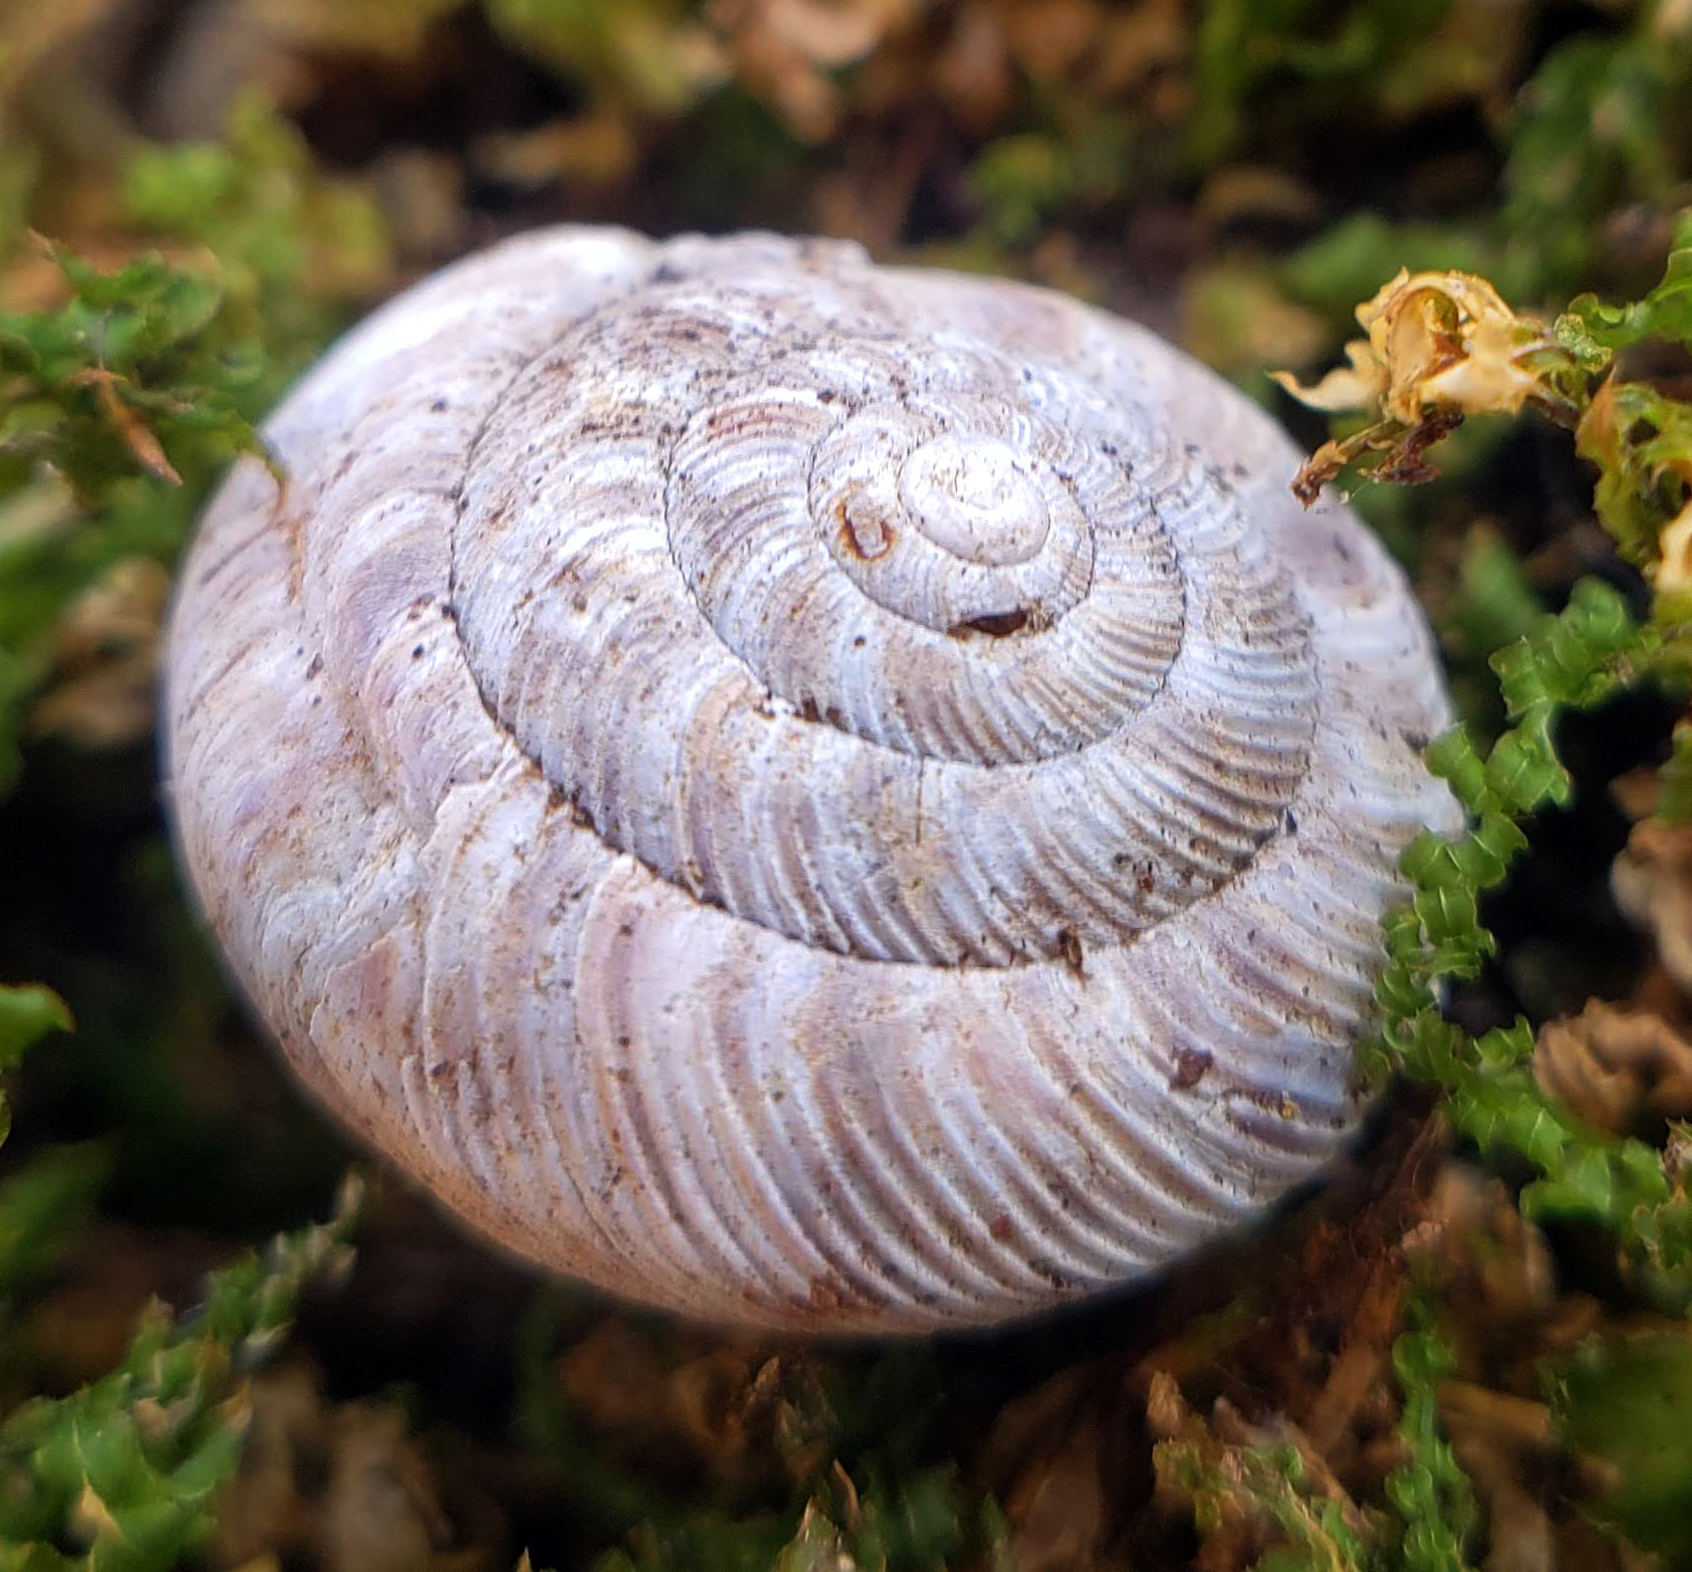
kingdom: Animalia
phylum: Mollusca
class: Gastropoda
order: Stylommatophora
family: Discidae
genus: Anguispira
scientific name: Anguispira alternata
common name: Flamed tigersnail
